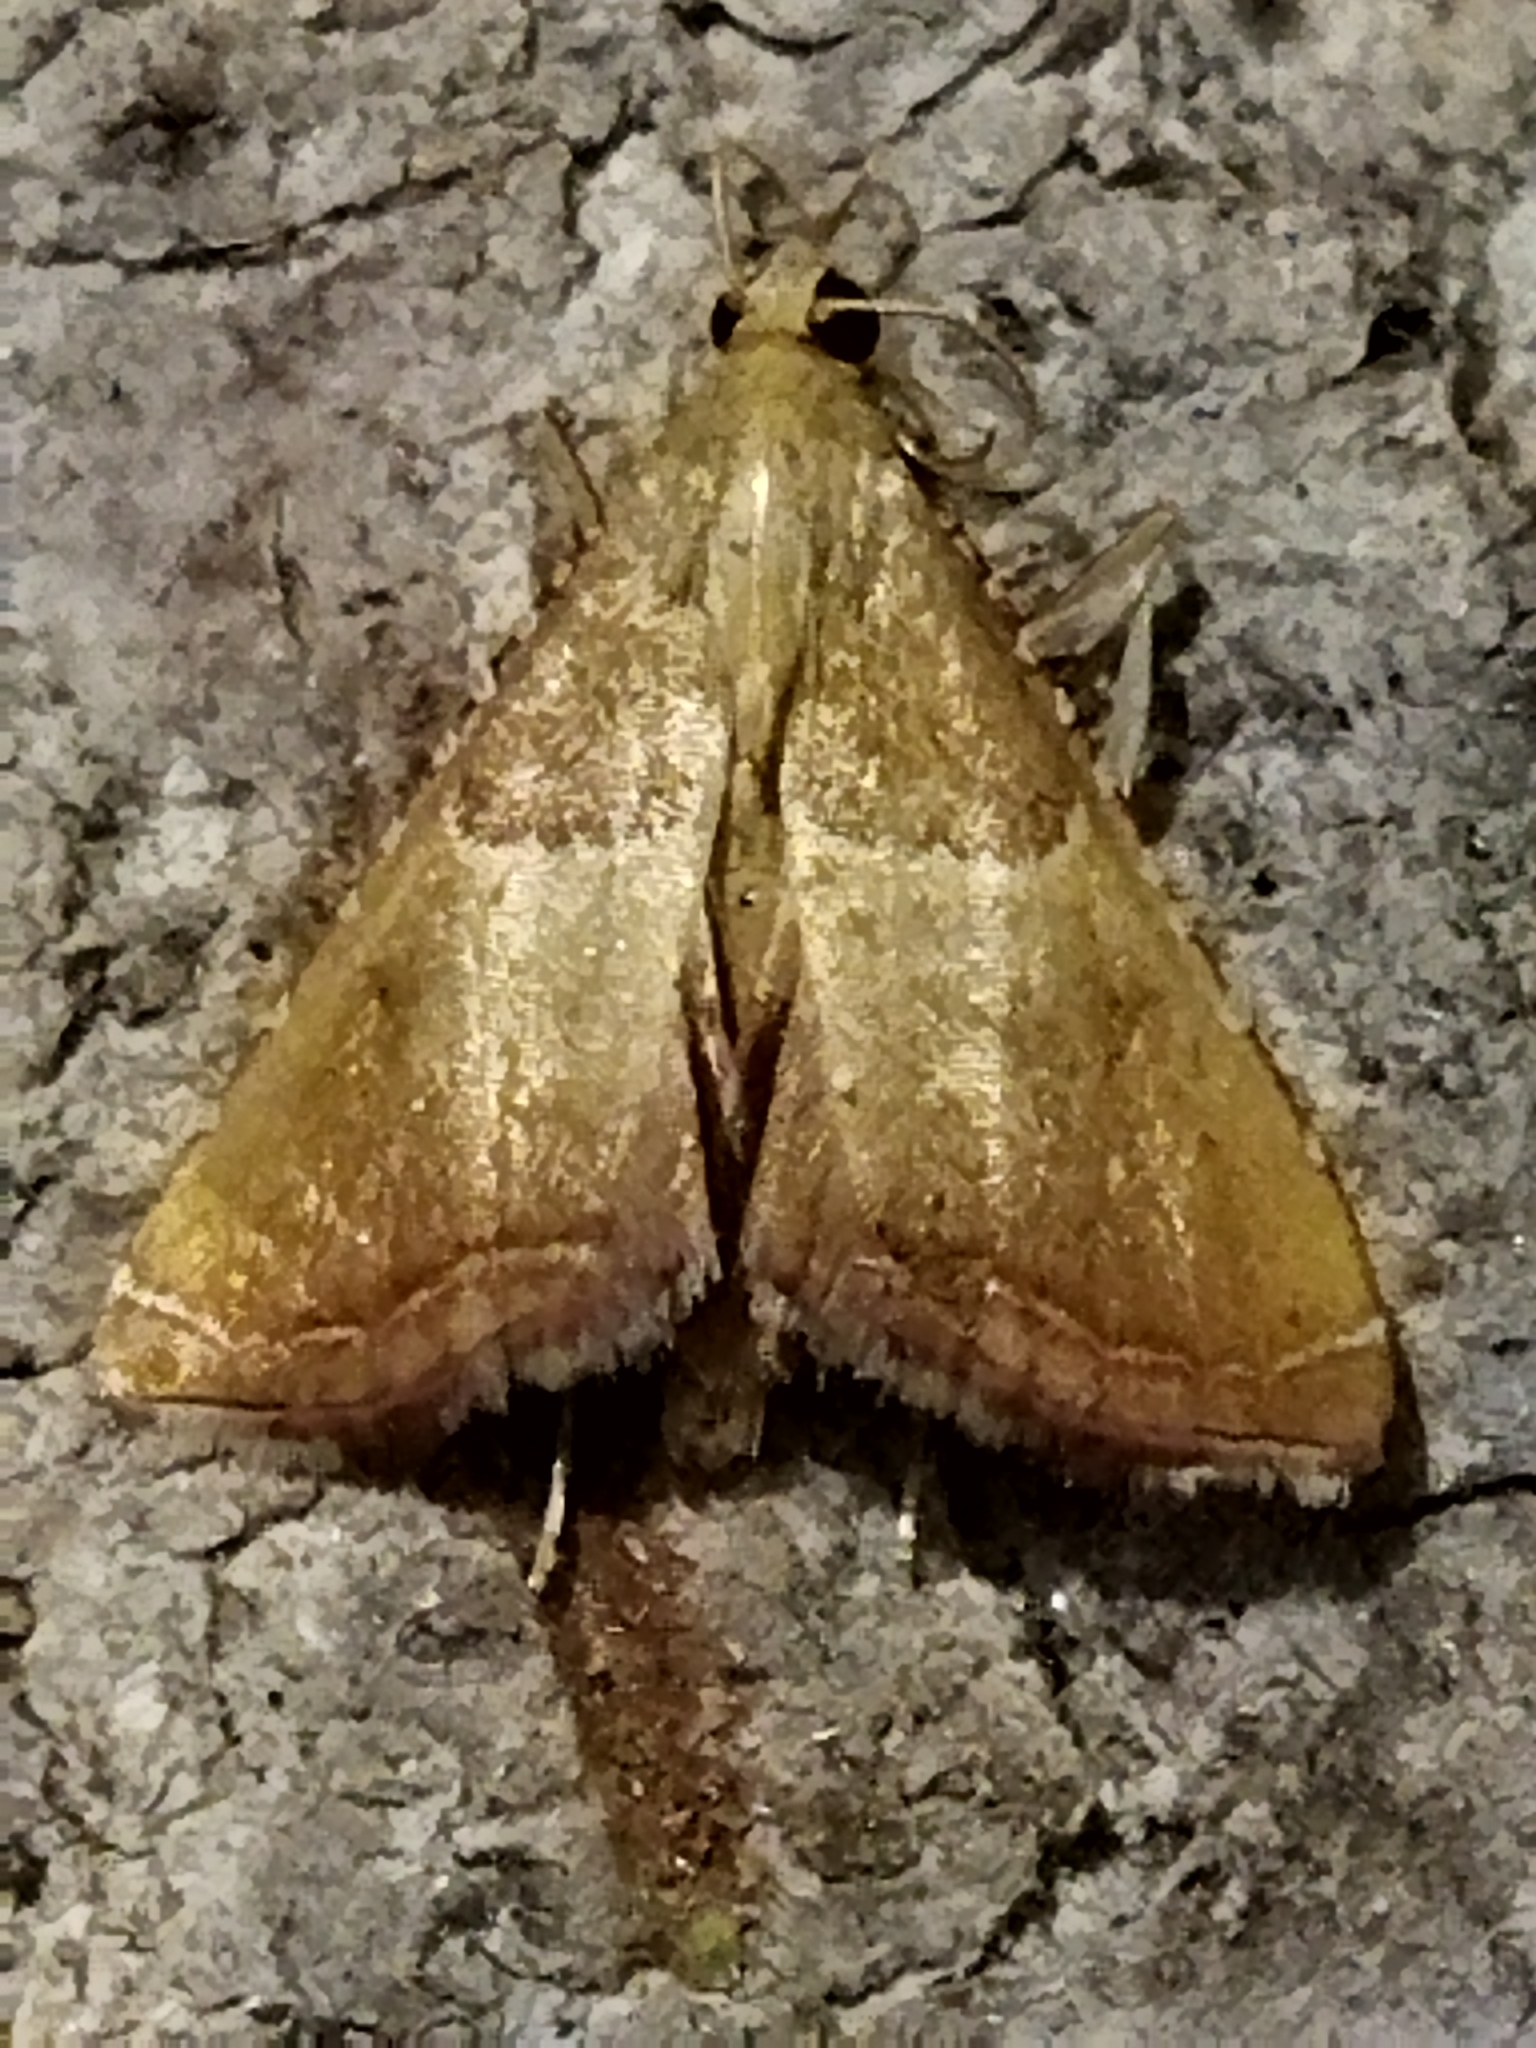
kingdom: Animalia
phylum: Arthropoda
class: Insecta
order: Lepidoptera
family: Pyralidae
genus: Endotricha
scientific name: Endotricha flammealis
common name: Rosy tabby
